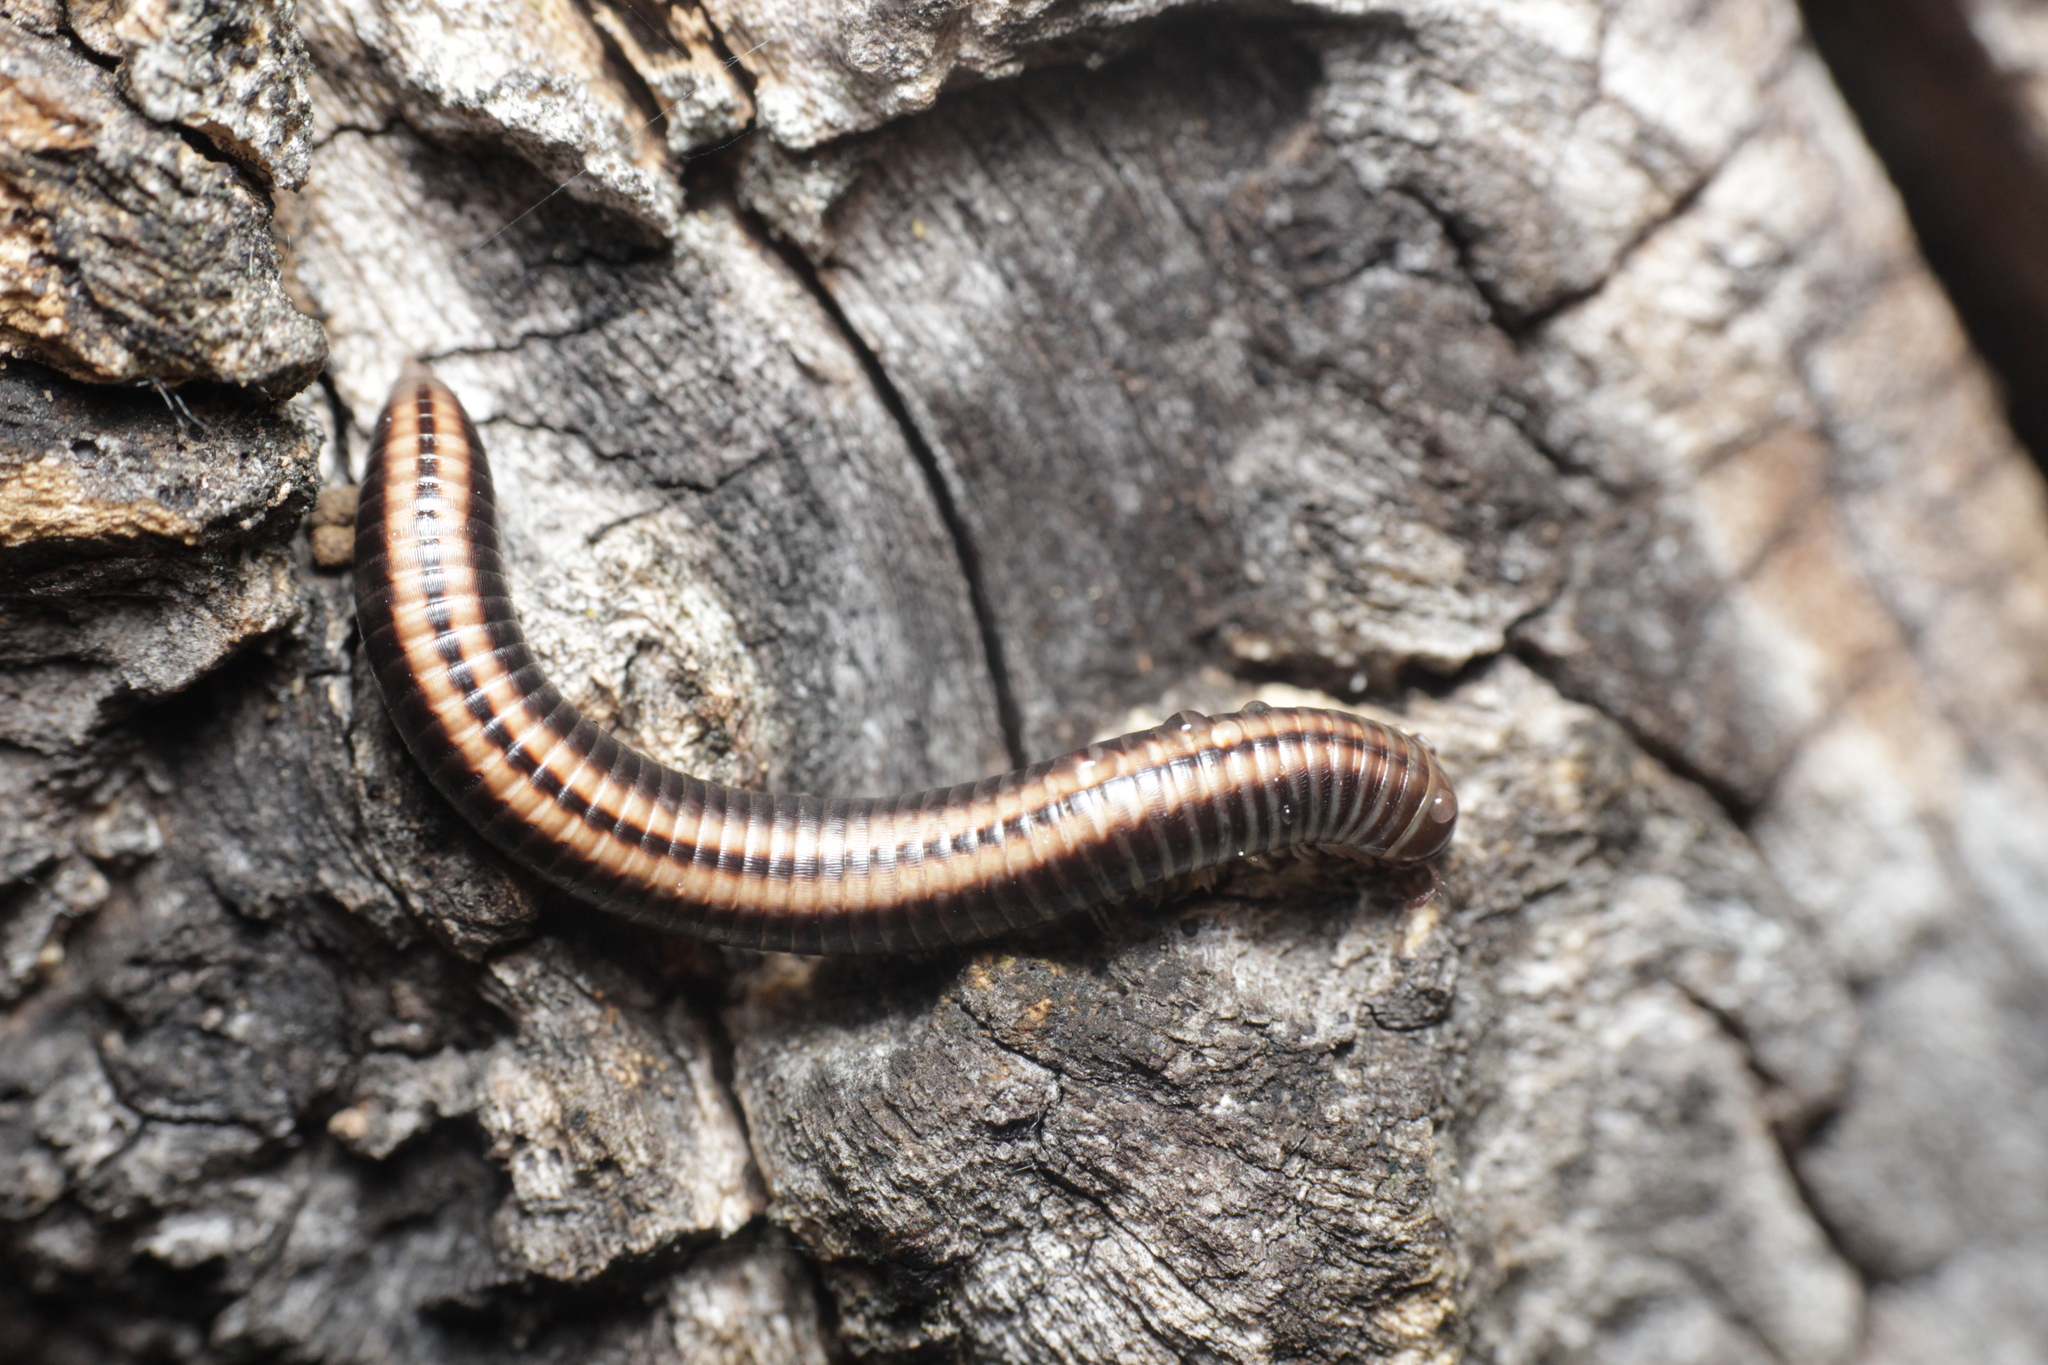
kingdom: Animalia
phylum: Arthropoda
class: Diplopoda
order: Julida
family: Julidae
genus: Ommatoiulus
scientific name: Ommatoiulus sabulosus
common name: Striped millipede
